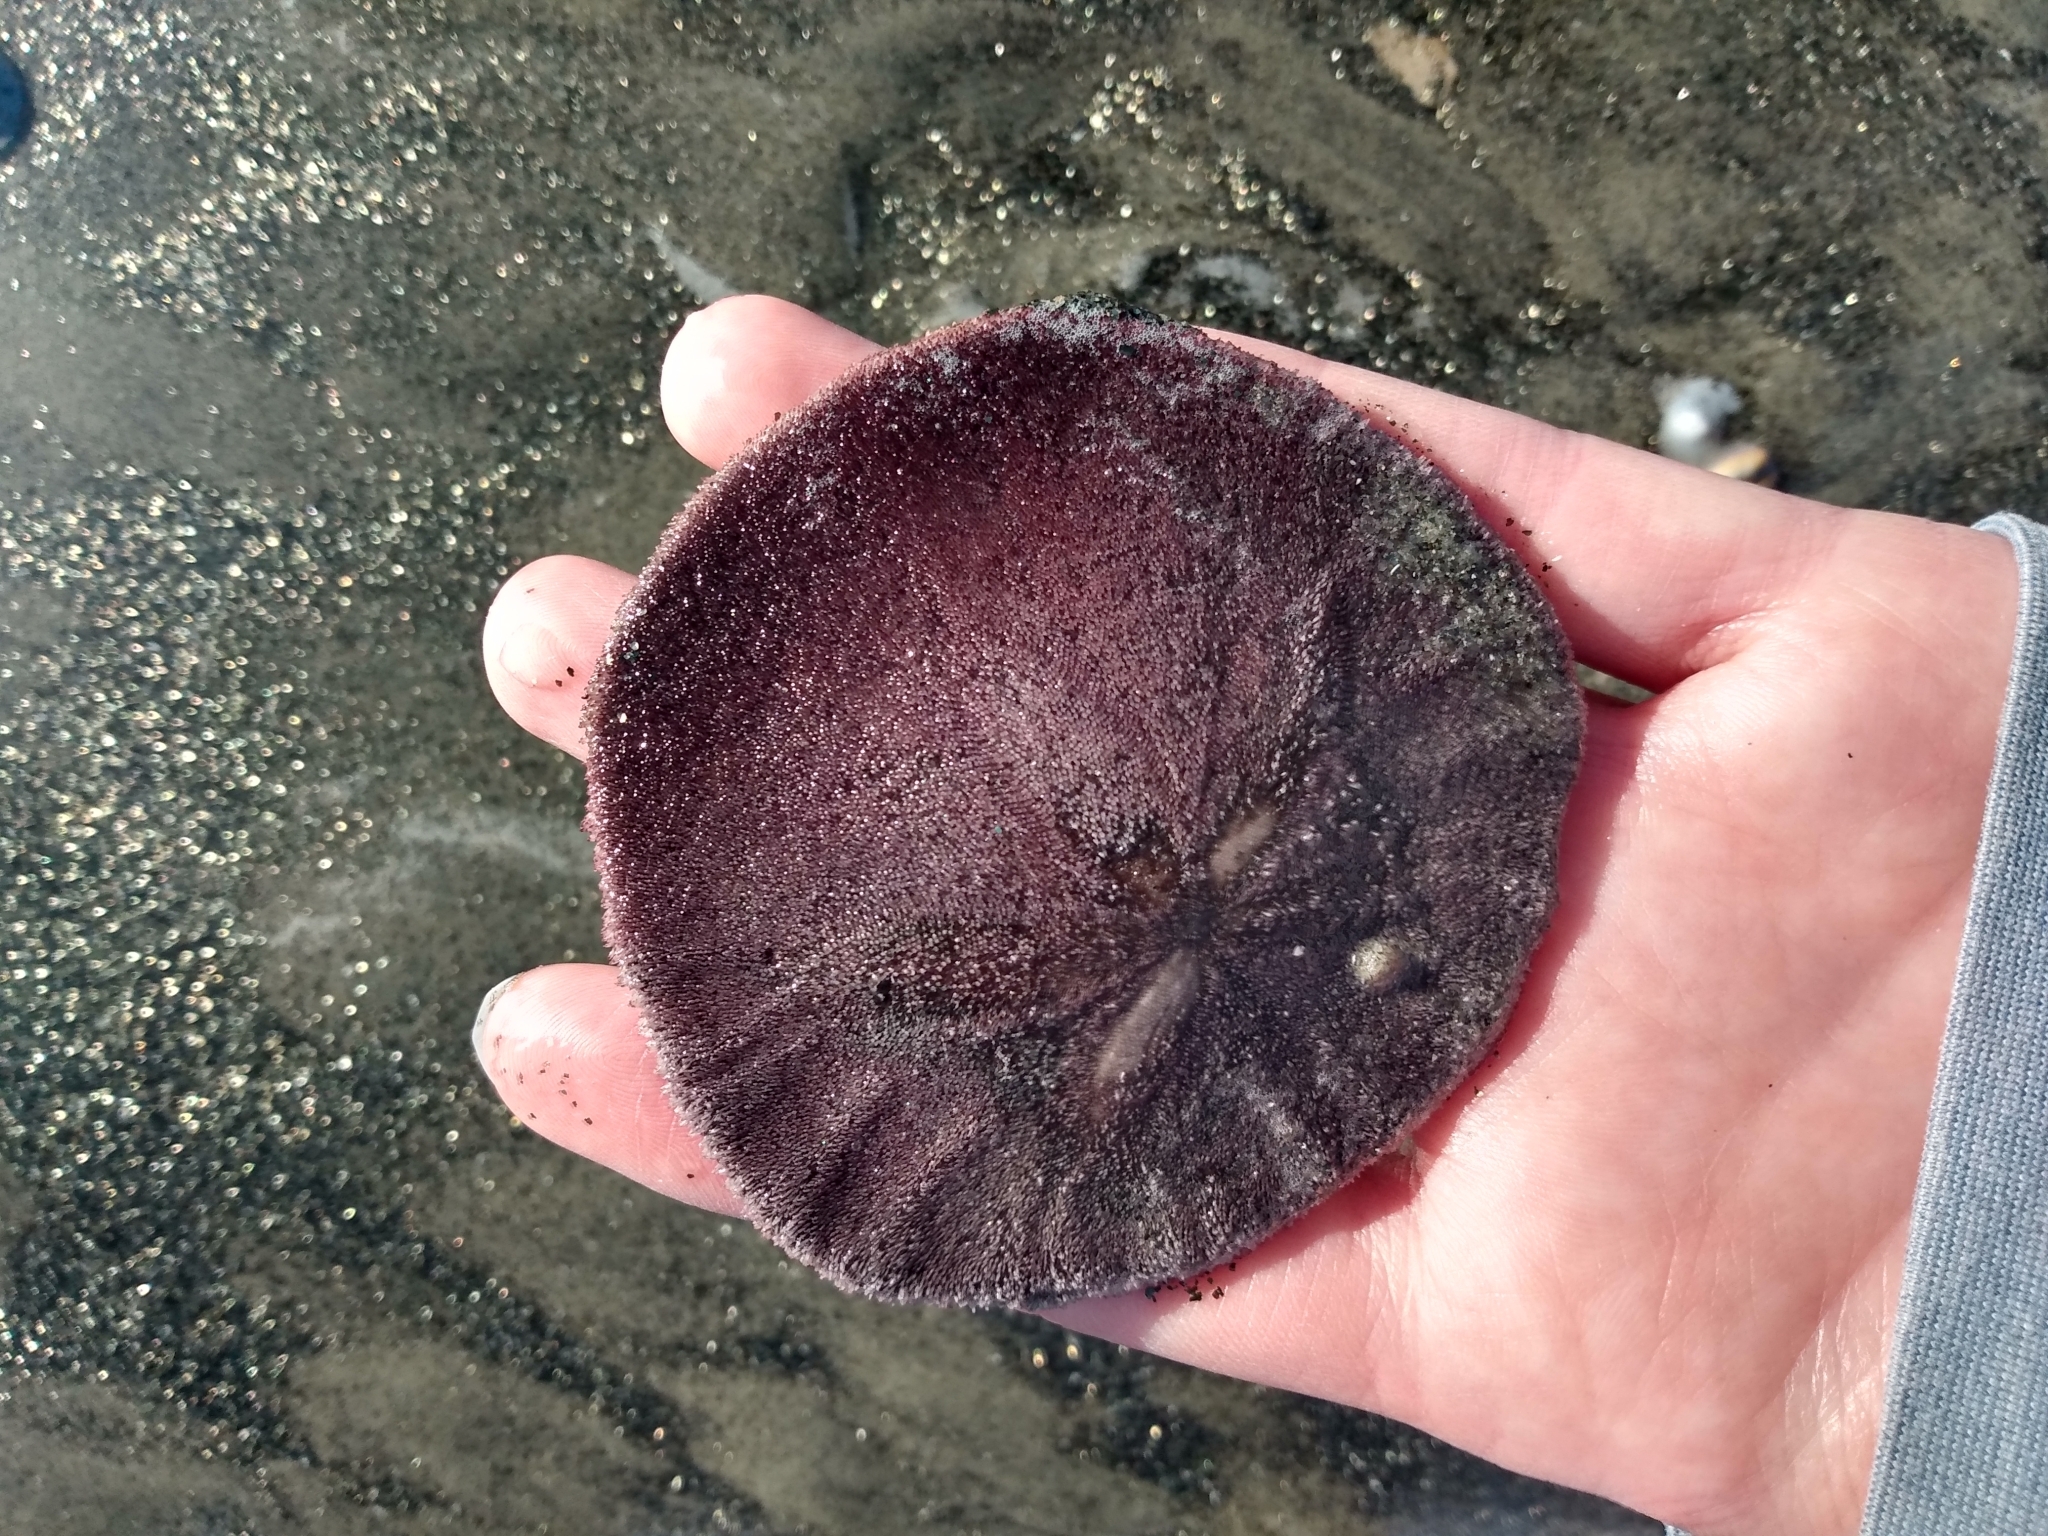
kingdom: Animalia
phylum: Echinodermata
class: Echinoidea
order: Echinolampadacea
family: Dendrasteridae
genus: Dendraster
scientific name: Dendraster excentricus
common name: Eccentric sand dollar sea urchin
